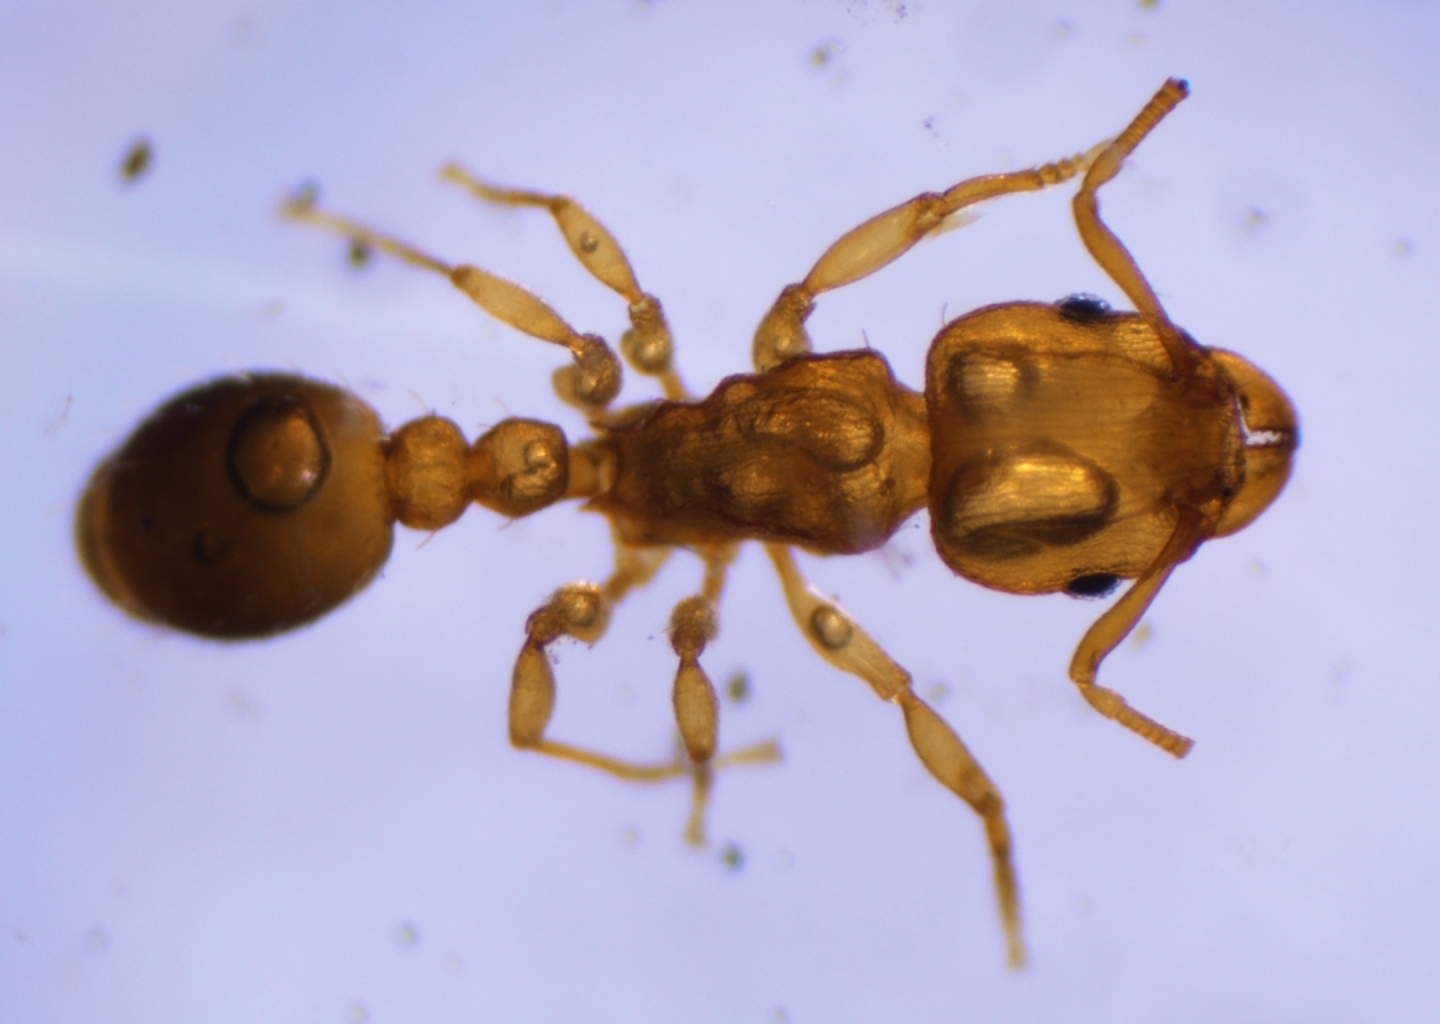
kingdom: Animalia
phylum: Arthropoda
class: Insecta
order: Hymenoptera
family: Formicidae
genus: Tetramorium
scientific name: Tetramorium simillimum
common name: Ant
